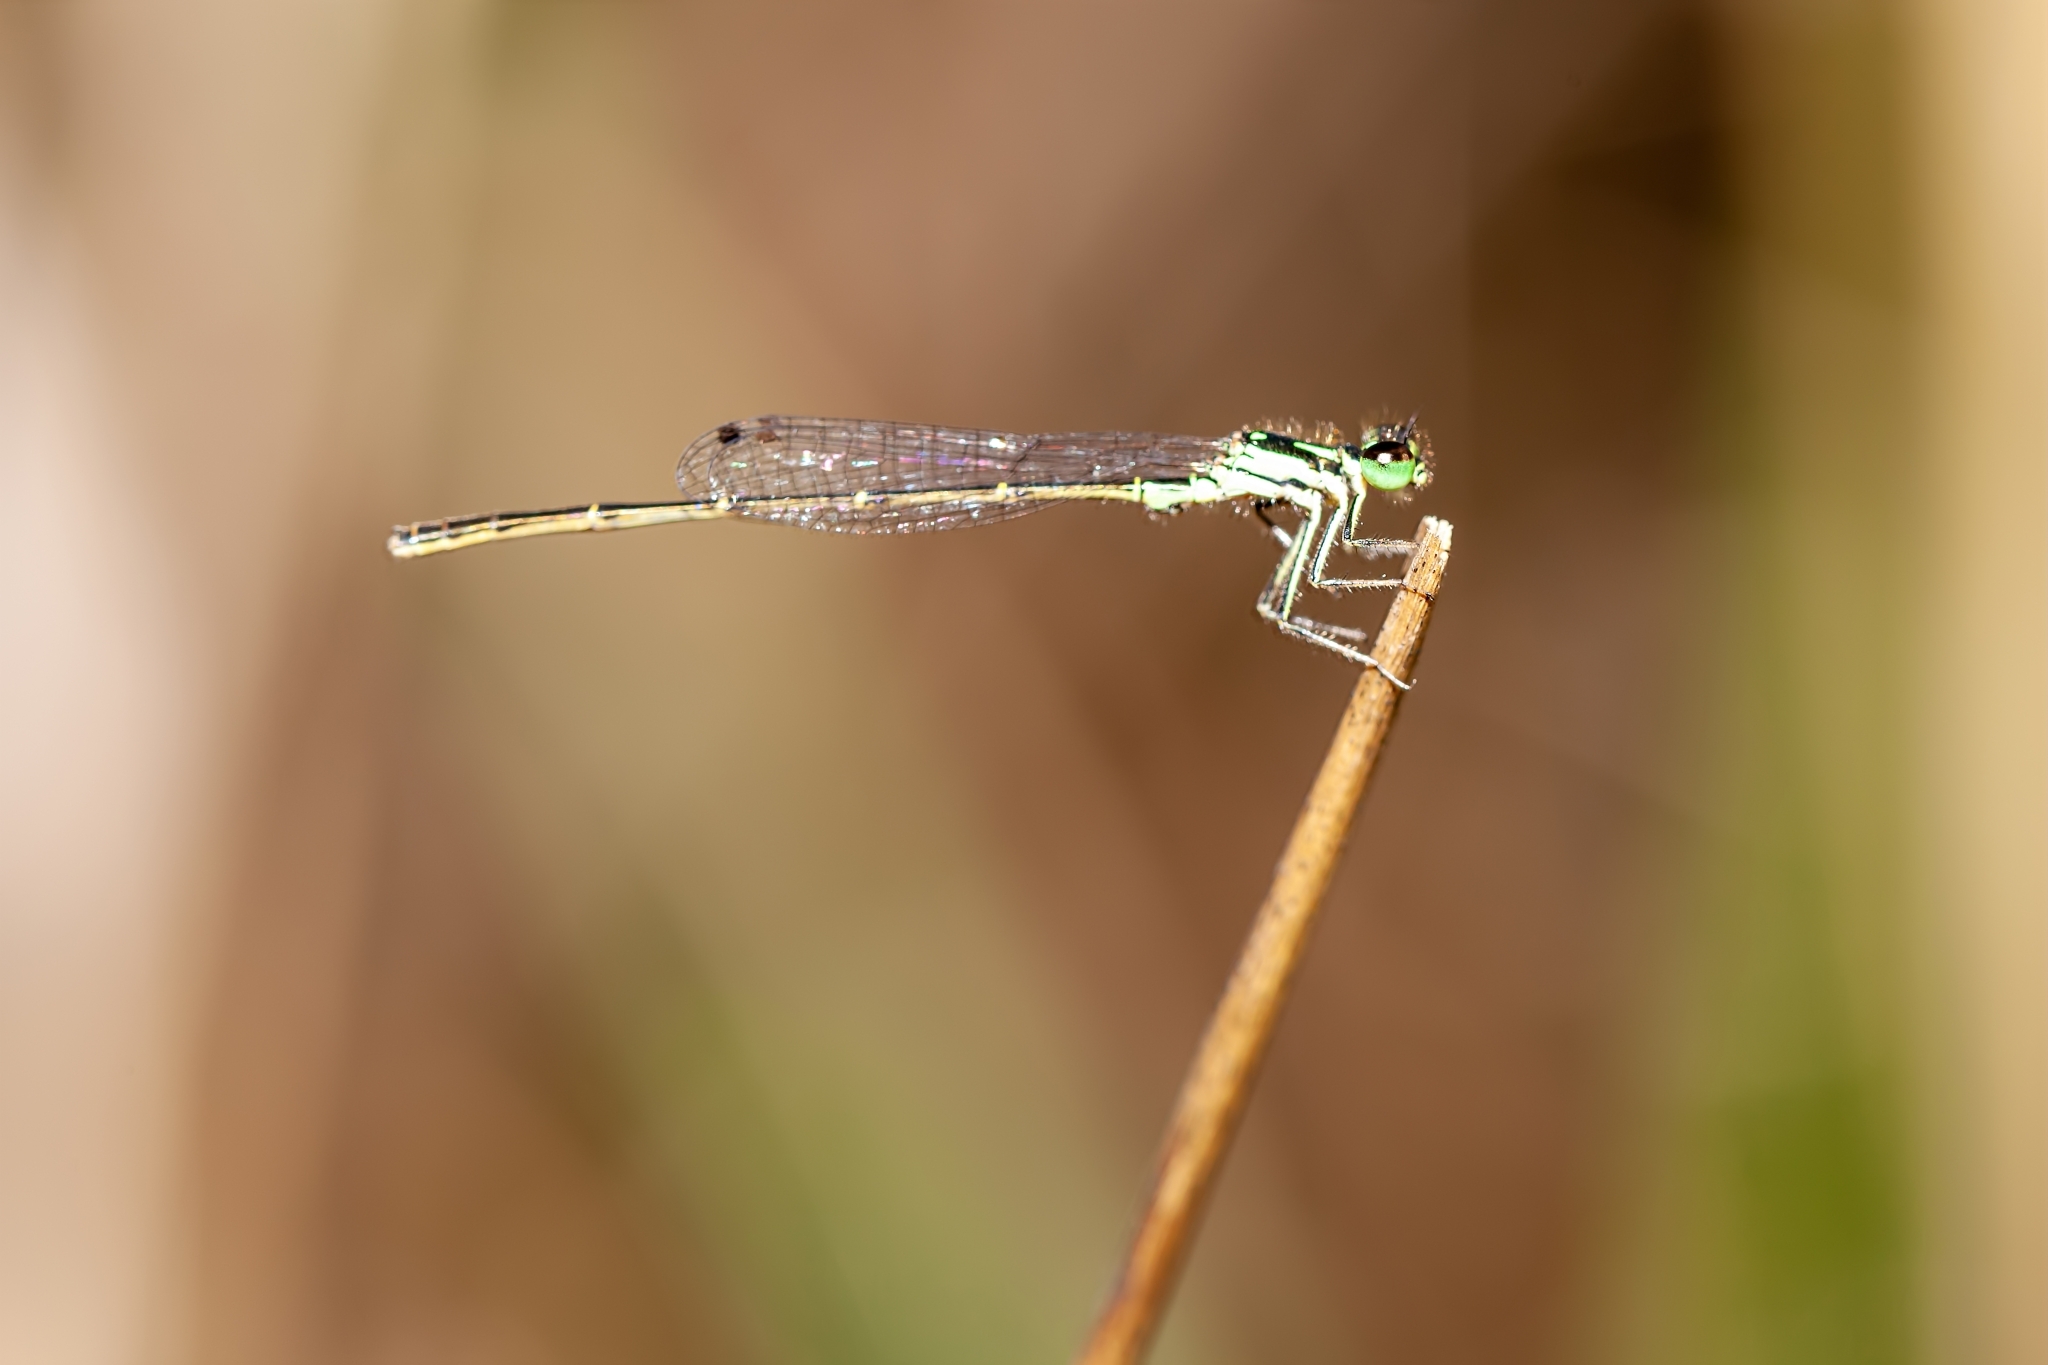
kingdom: Animalia
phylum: Arthropoda
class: Insecta
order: Odonata
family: Coenagrionidae
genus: Ischnura
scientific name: Ischnura posita
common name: Fragile forktail
